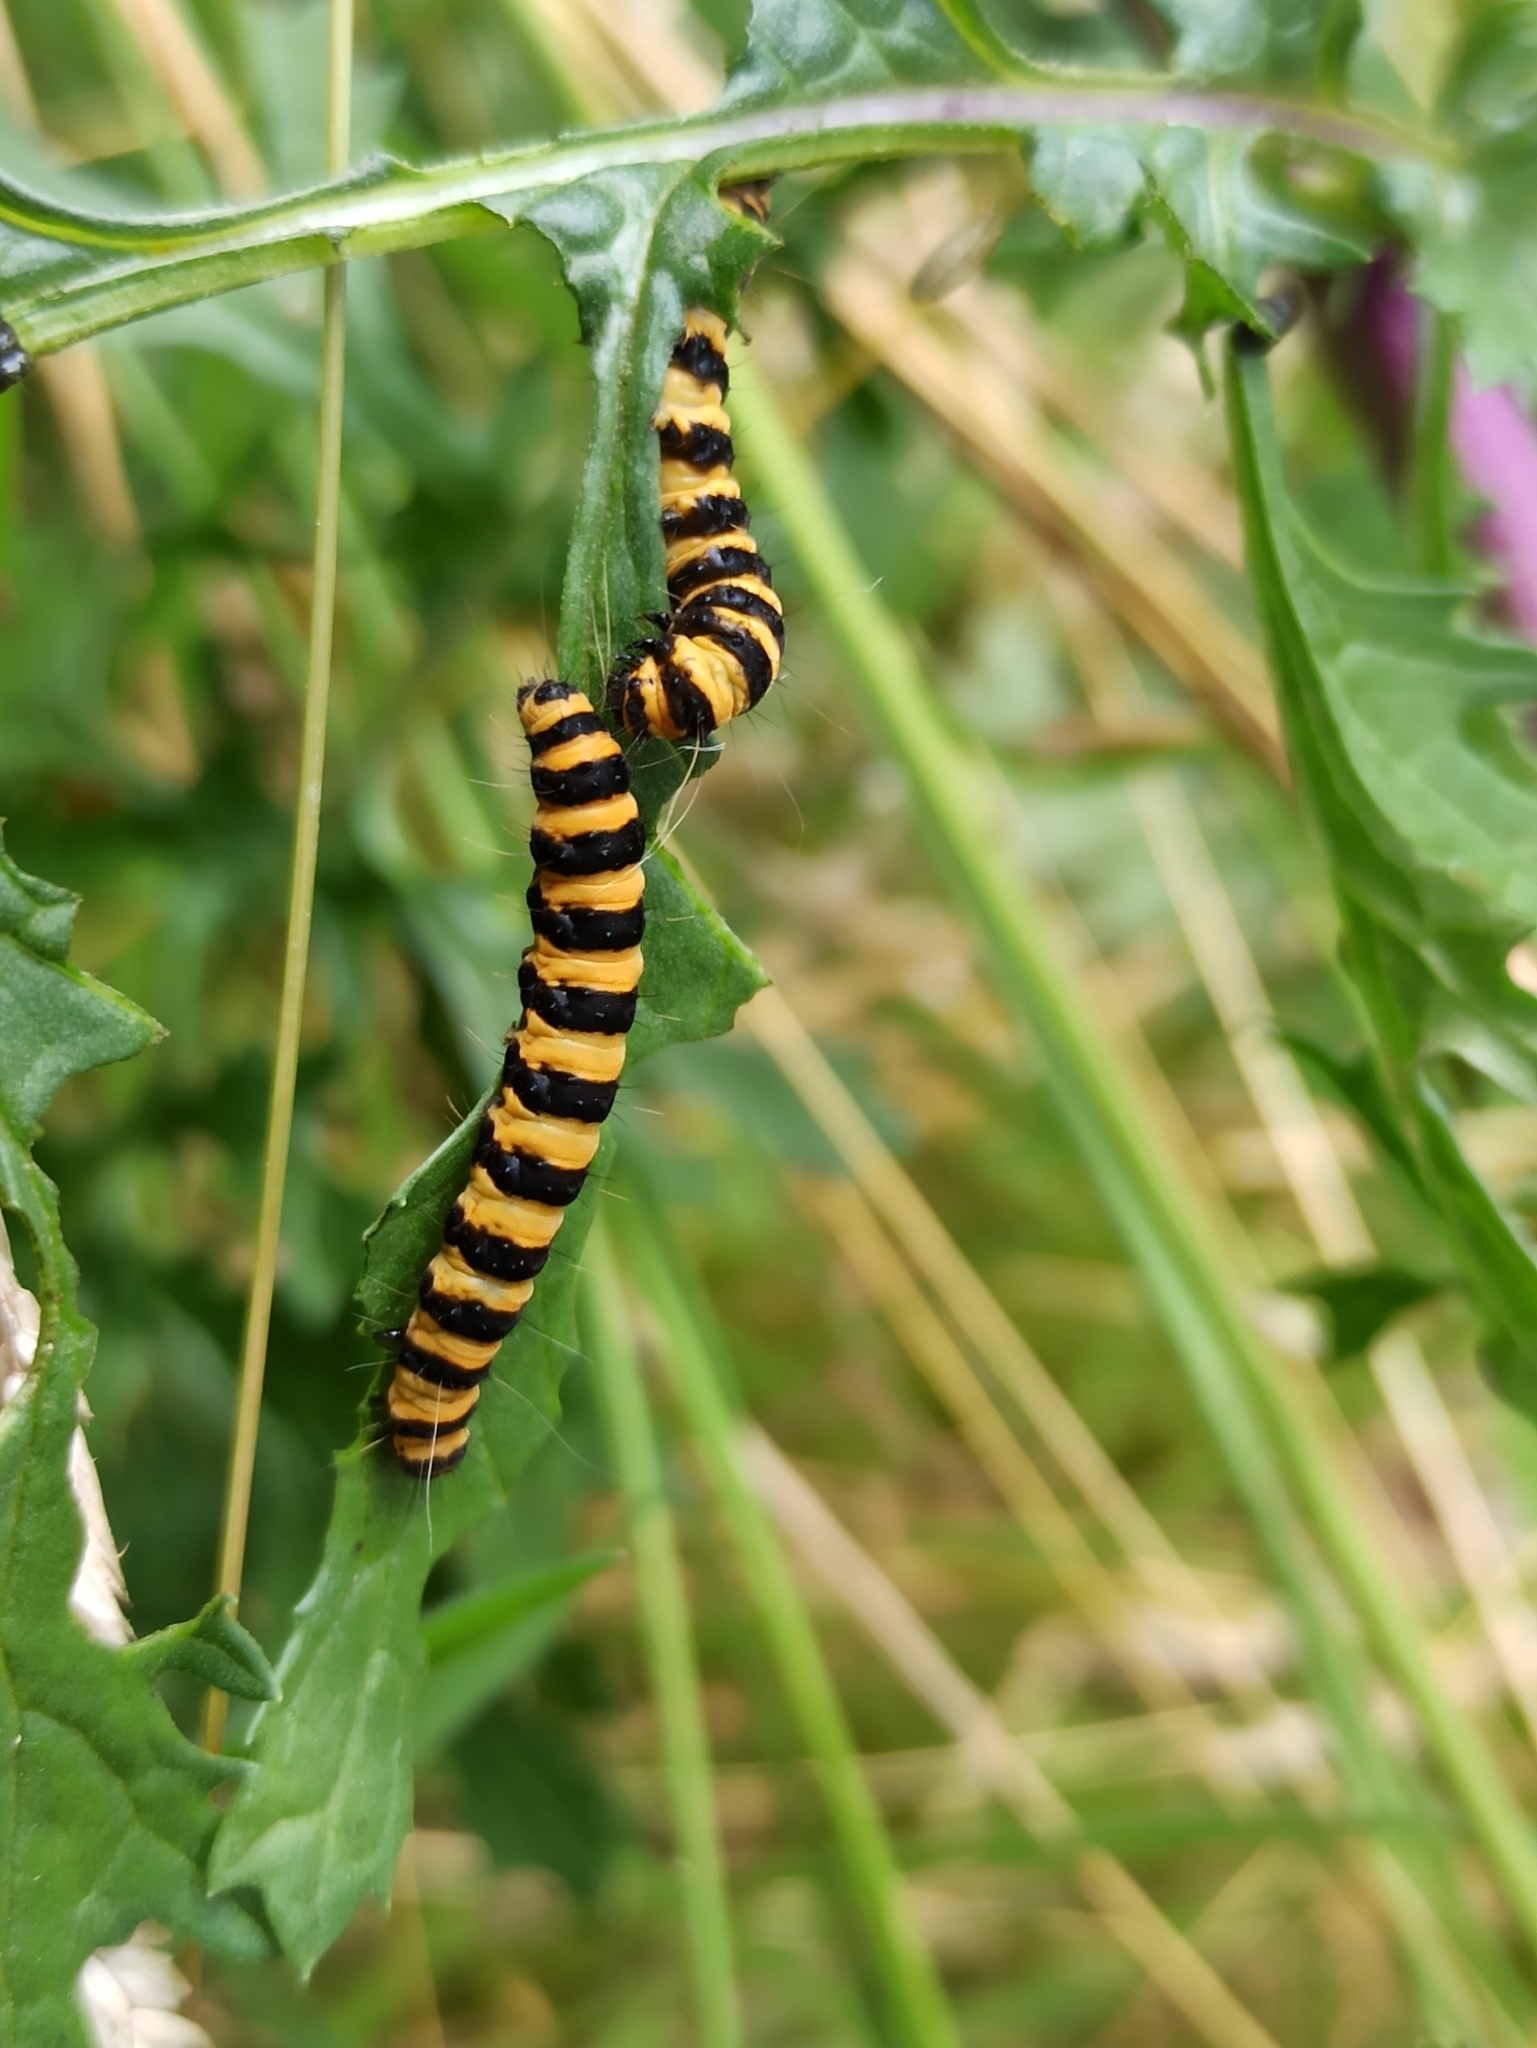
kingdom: Animalia
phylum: Arthropoda
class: Insecta
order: Lepidoptera
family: Erebidae
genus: Tyria
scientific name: Tyria jacobaeae
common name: Cinnabar
